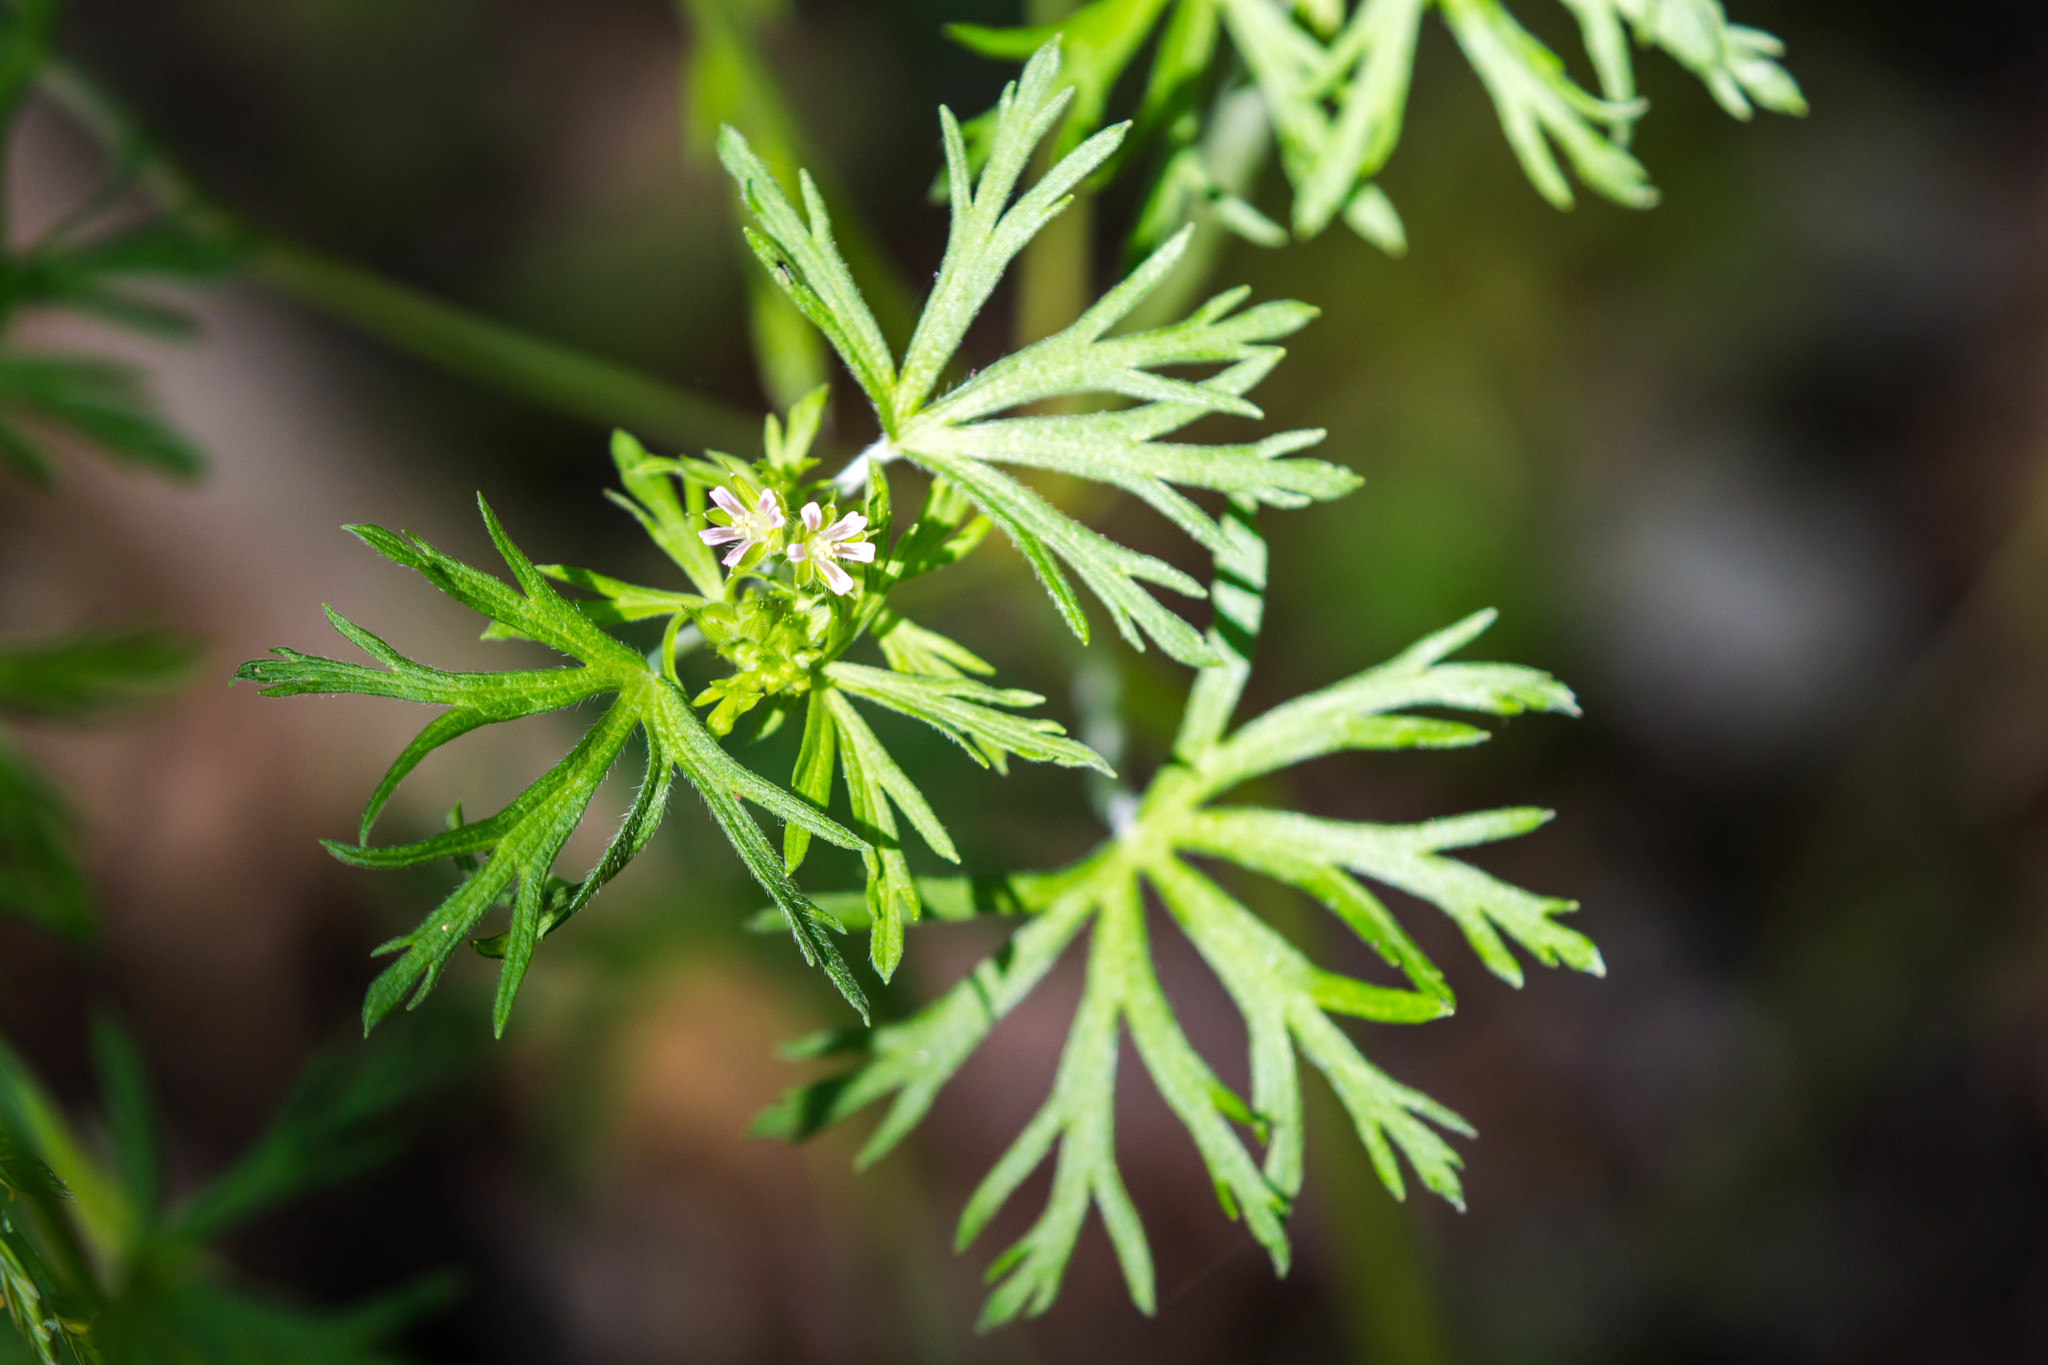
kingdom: Plantae
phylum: Tracheophyta
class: Magnoliopsida
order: Geraniales
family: Geraniaceae
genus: Geranium
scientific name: Geranium carolinianum
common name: Carolina crane's-bill
